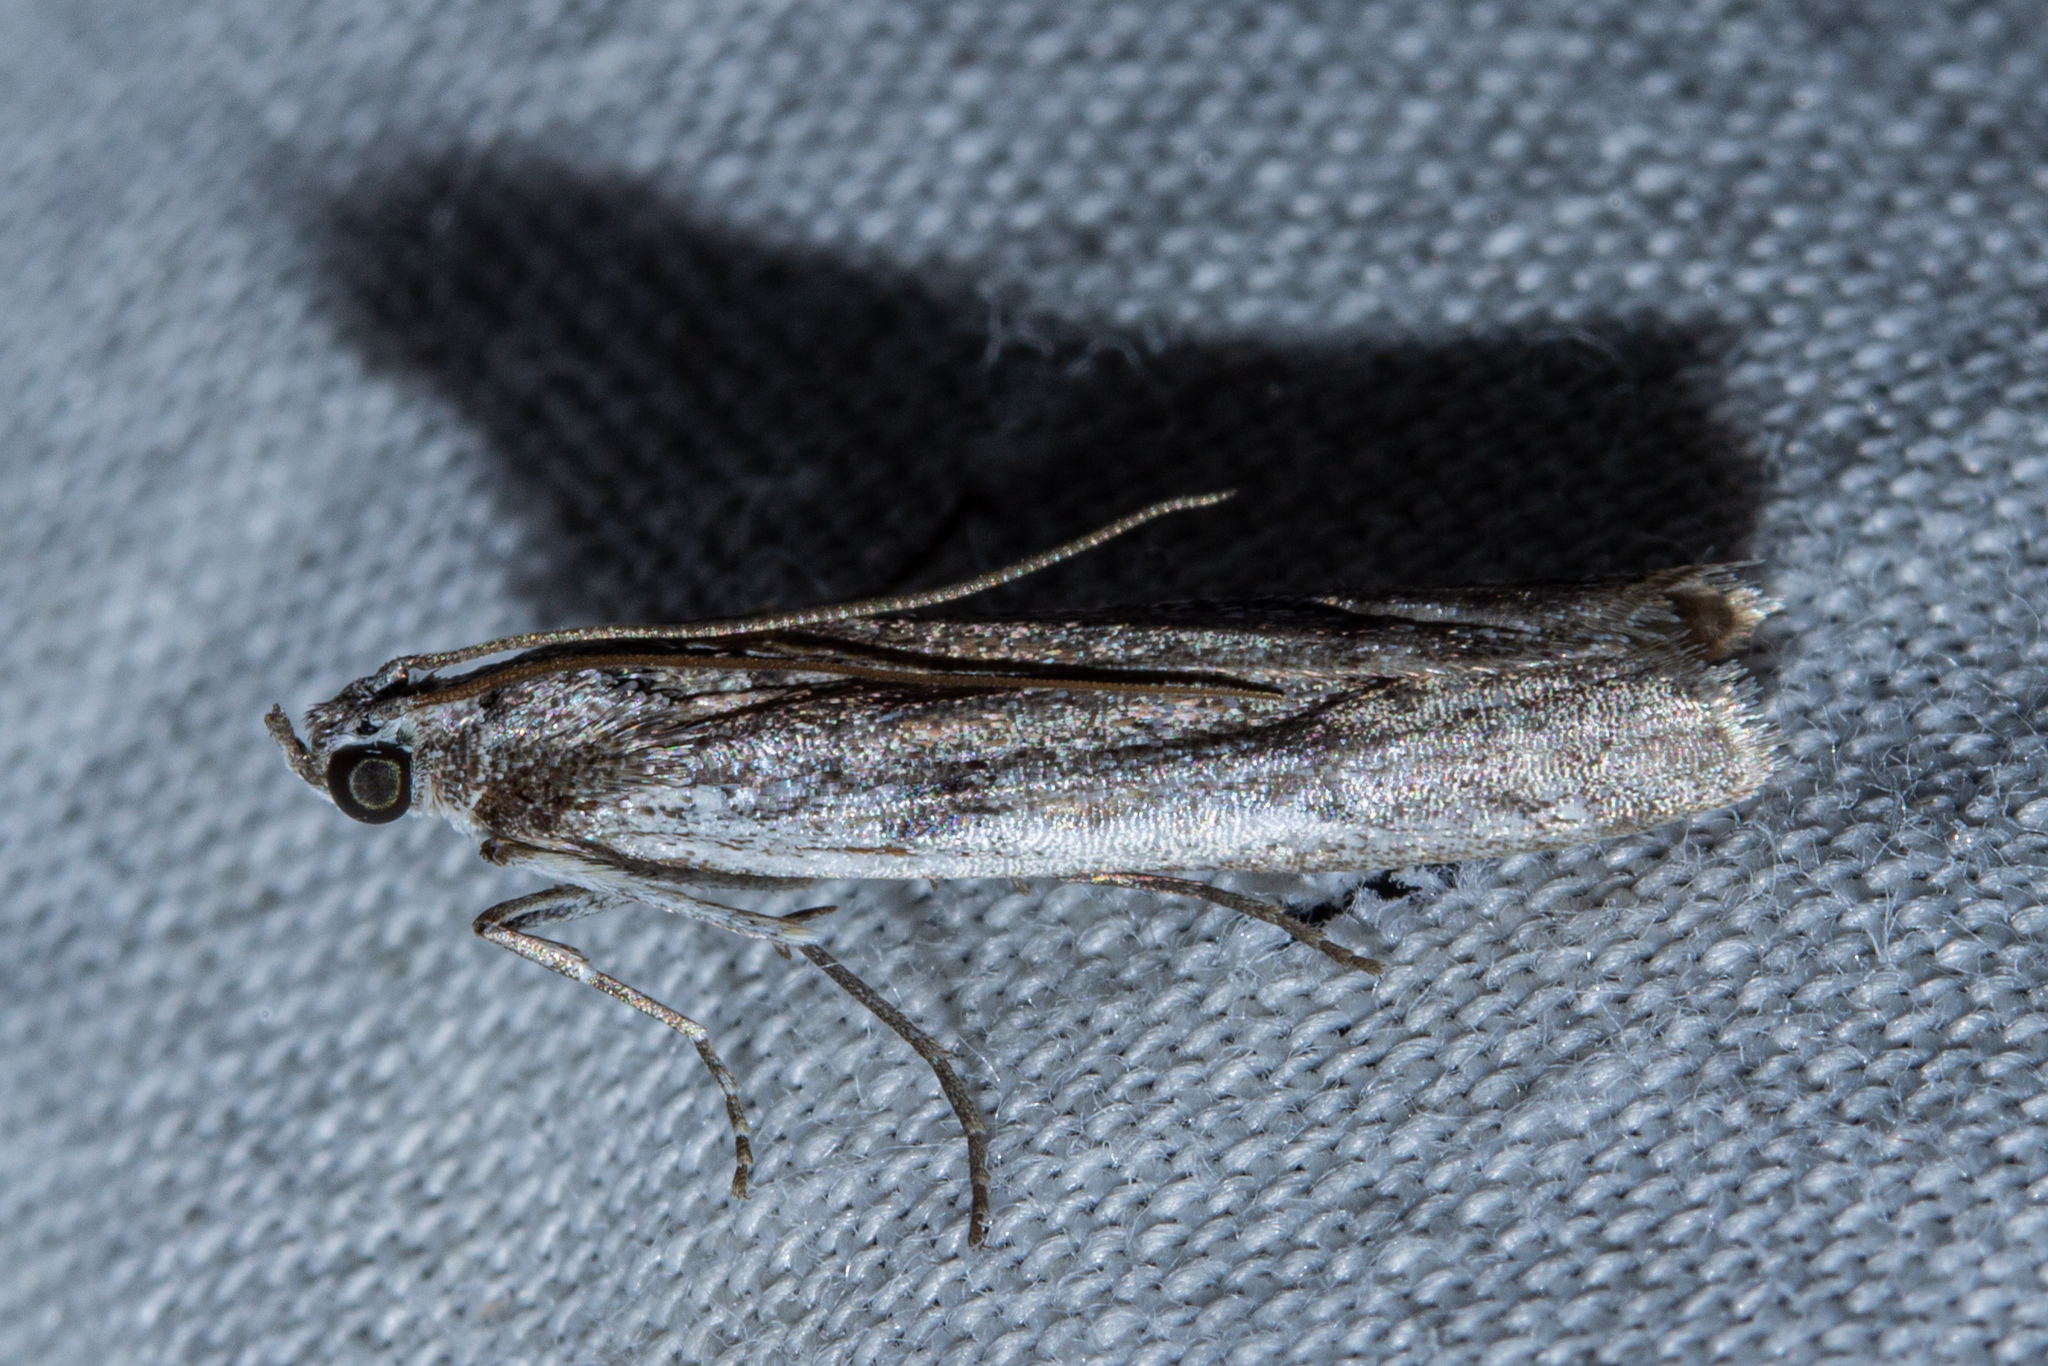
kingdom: Animalia
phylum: Arthropoda
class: Insecta
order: Lepidoptera
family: Pyralidae
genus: Patagoniodes
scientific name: Patagoniodes farinaria
